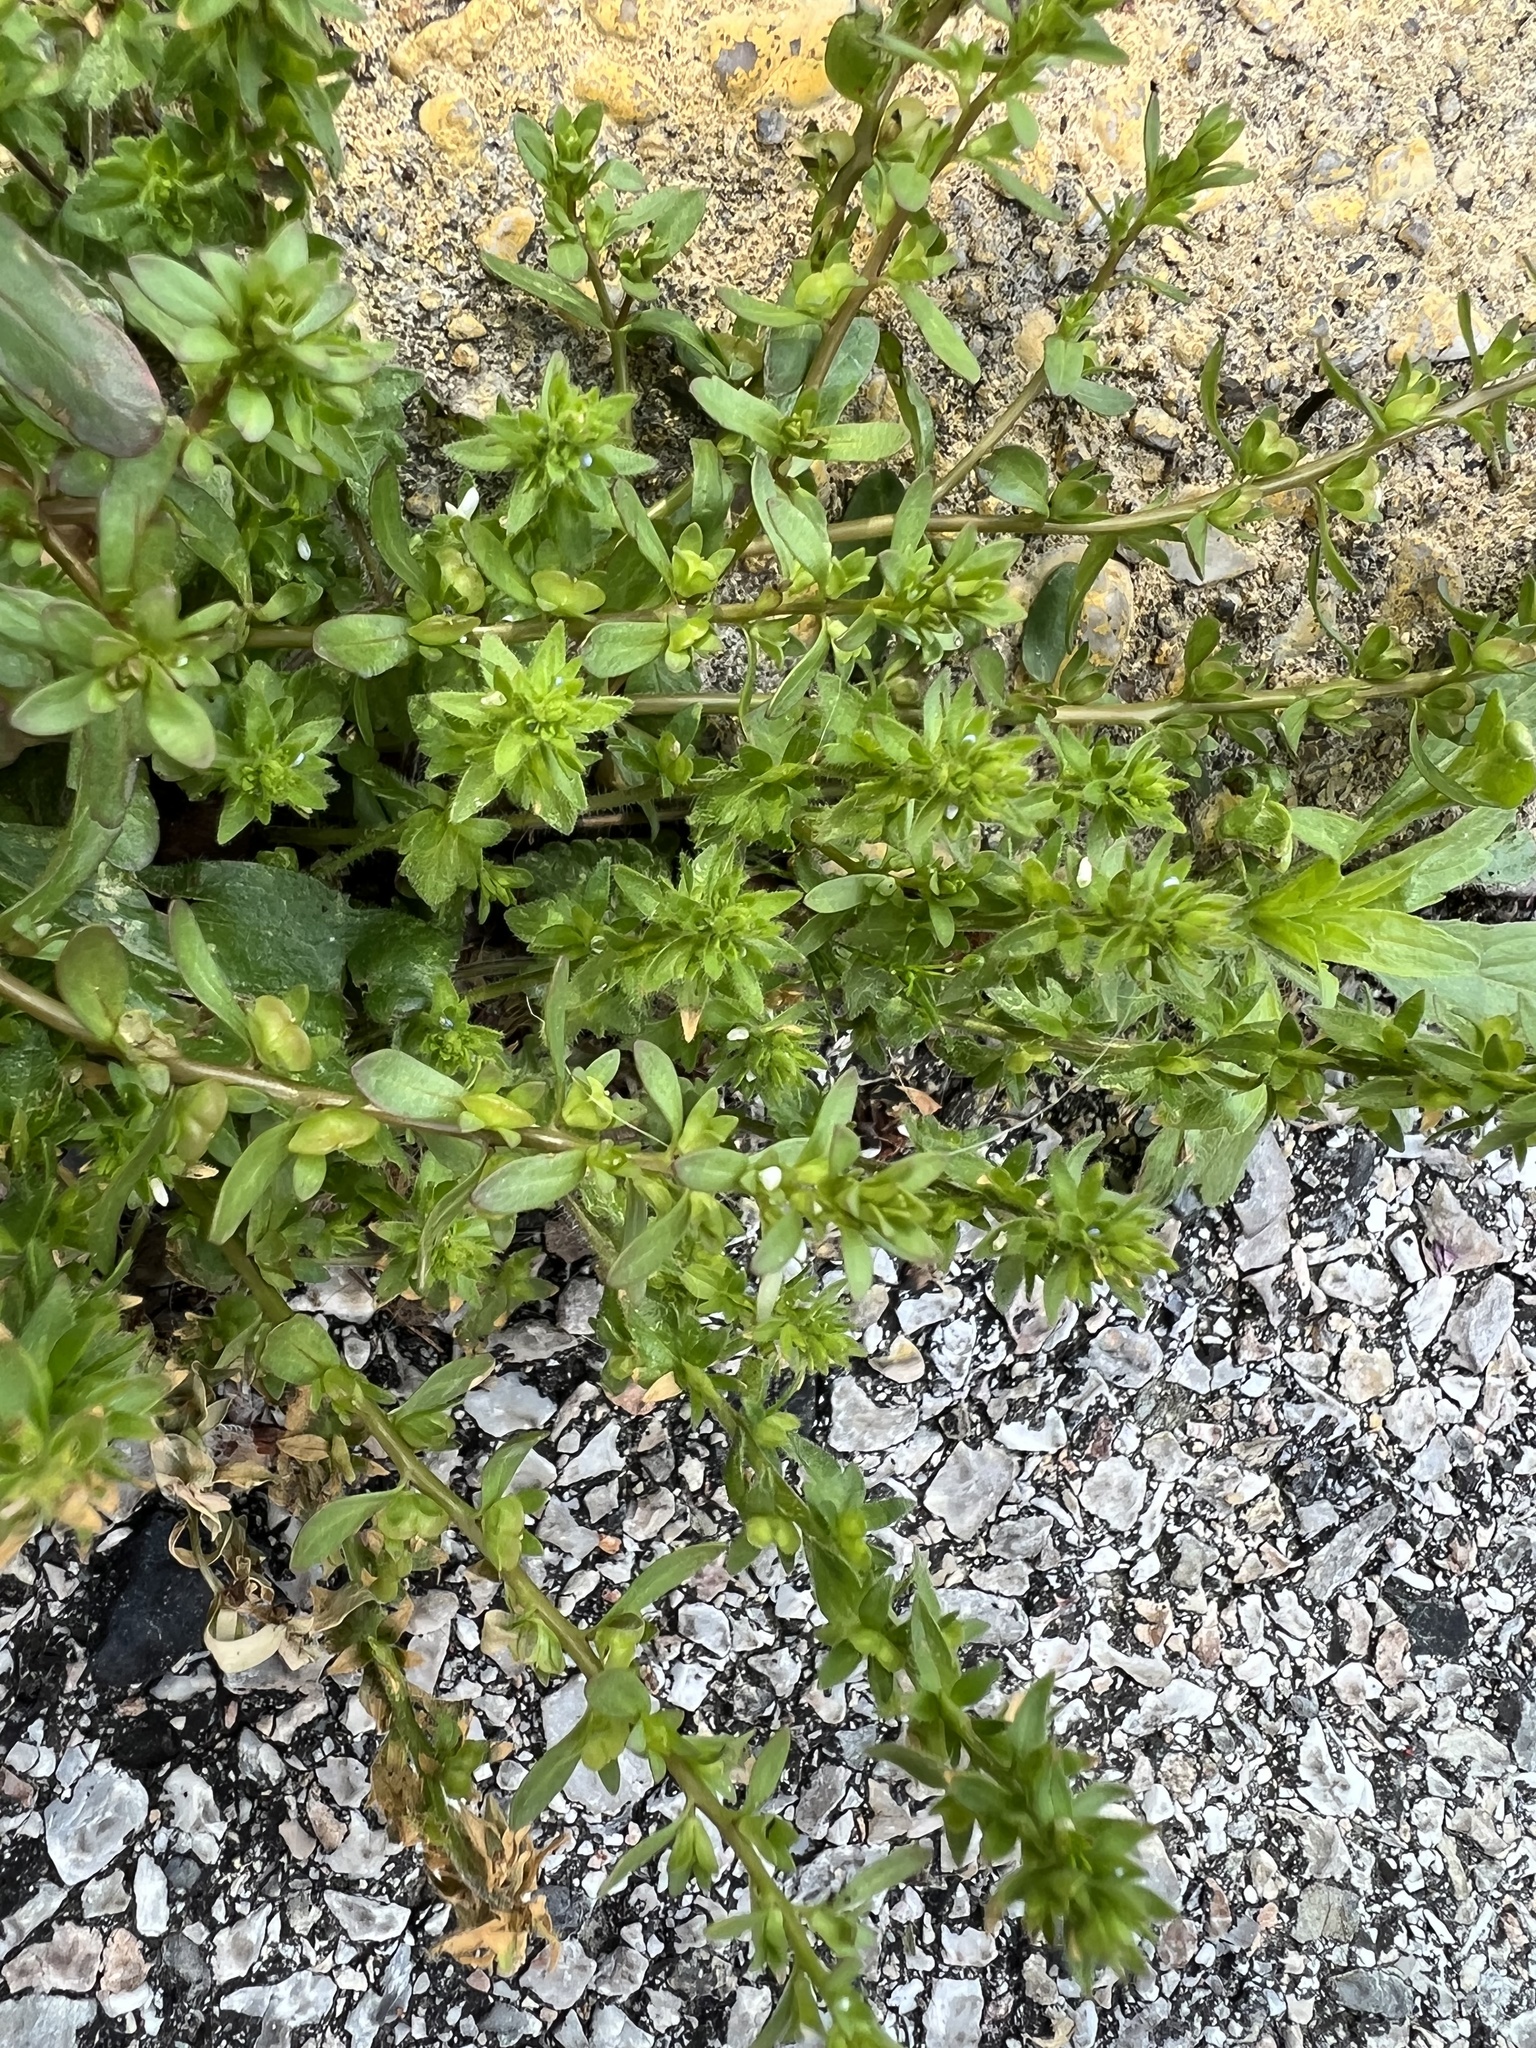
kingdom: Plantae
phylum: Tracheophyta
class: Magnoliopsida
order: Lamiales
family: Plantaginaceae
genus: Veronica
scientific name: Veronica peregrina
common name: Neckweed
